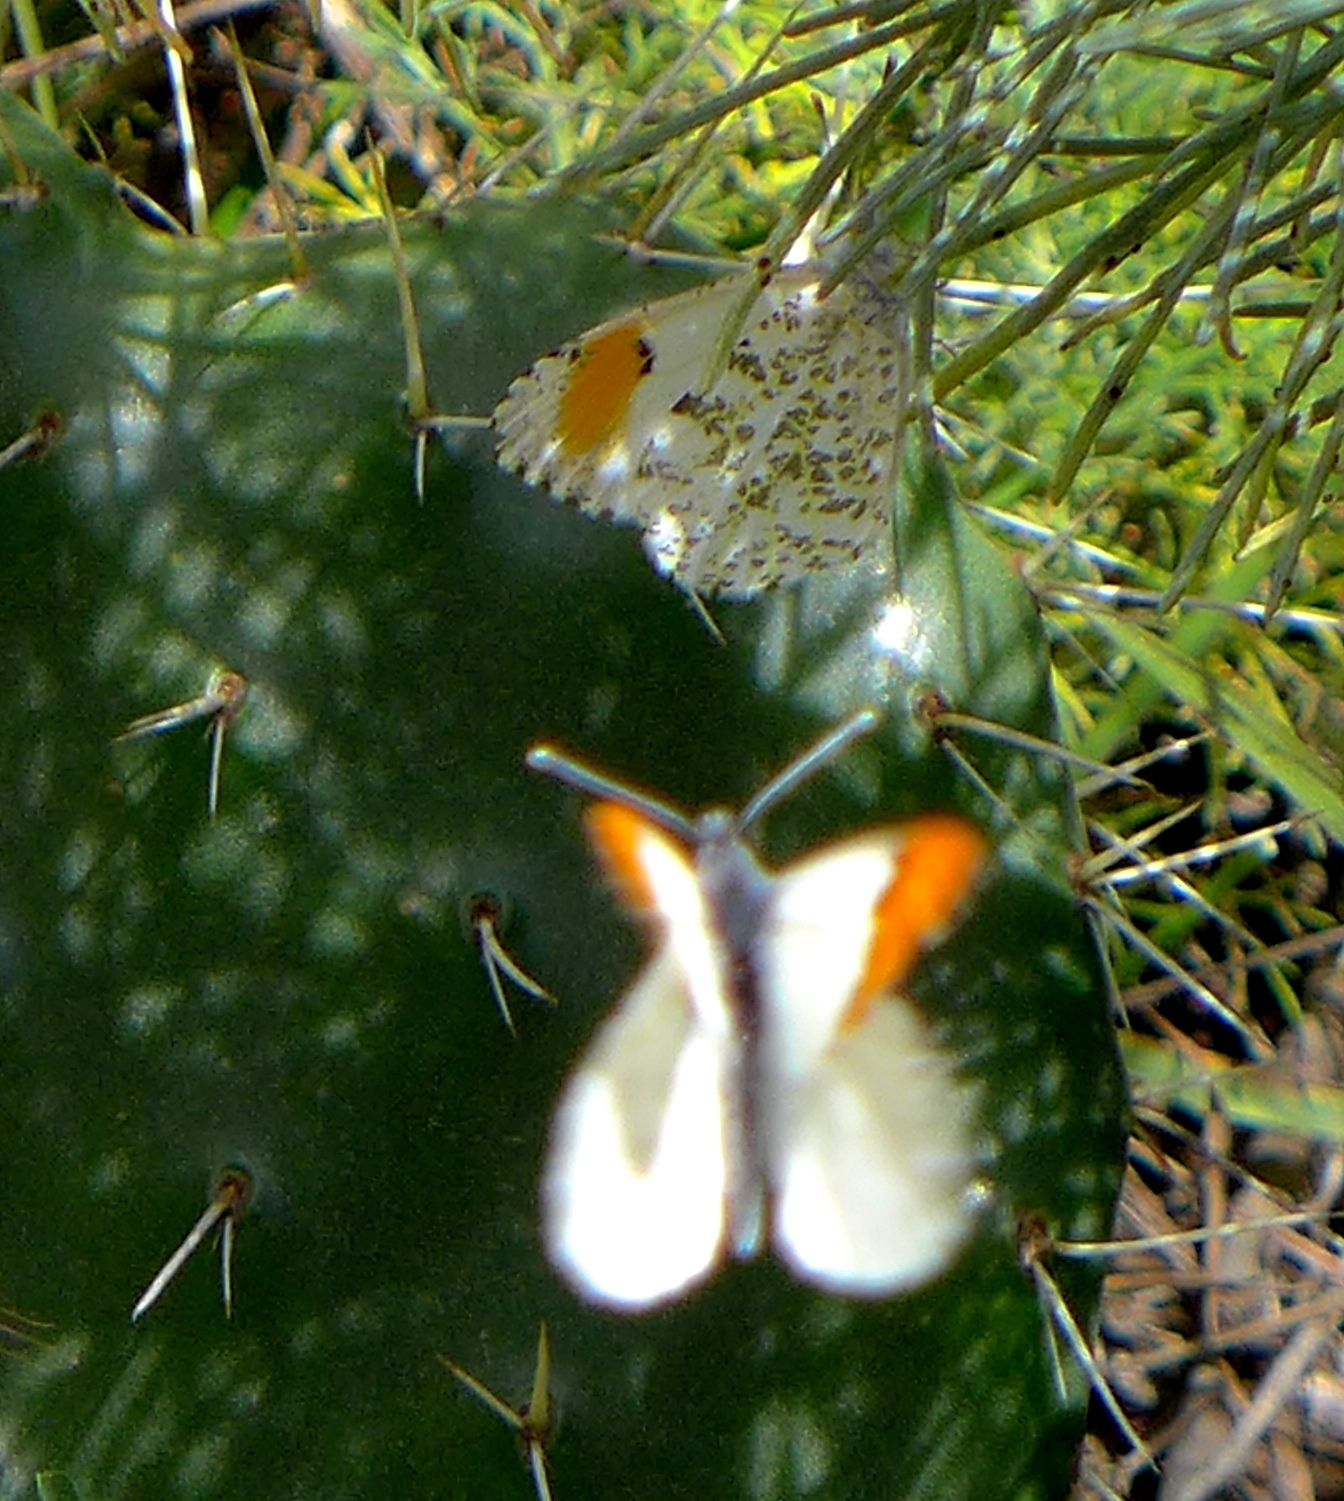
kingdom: Animalia
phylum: Arthropoda
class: Insecta
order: Lepidoptera
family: Pieridae
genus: Anthocharis
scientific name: Anthocharis sara
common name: Sara's orangetip
